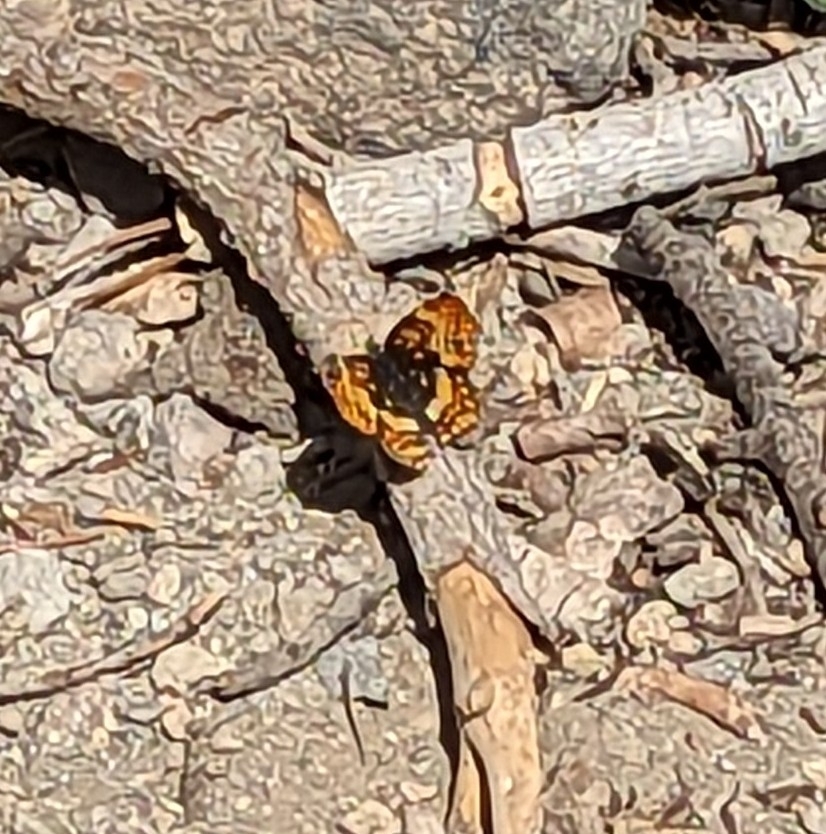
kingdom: Animalia
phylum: Arthropoda
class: Insecta
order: Lepidoptera
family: Nymphalidae
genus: Chlosyne
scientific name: Chlosyne hoffmanni
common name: Hoffmann's checkerspot
